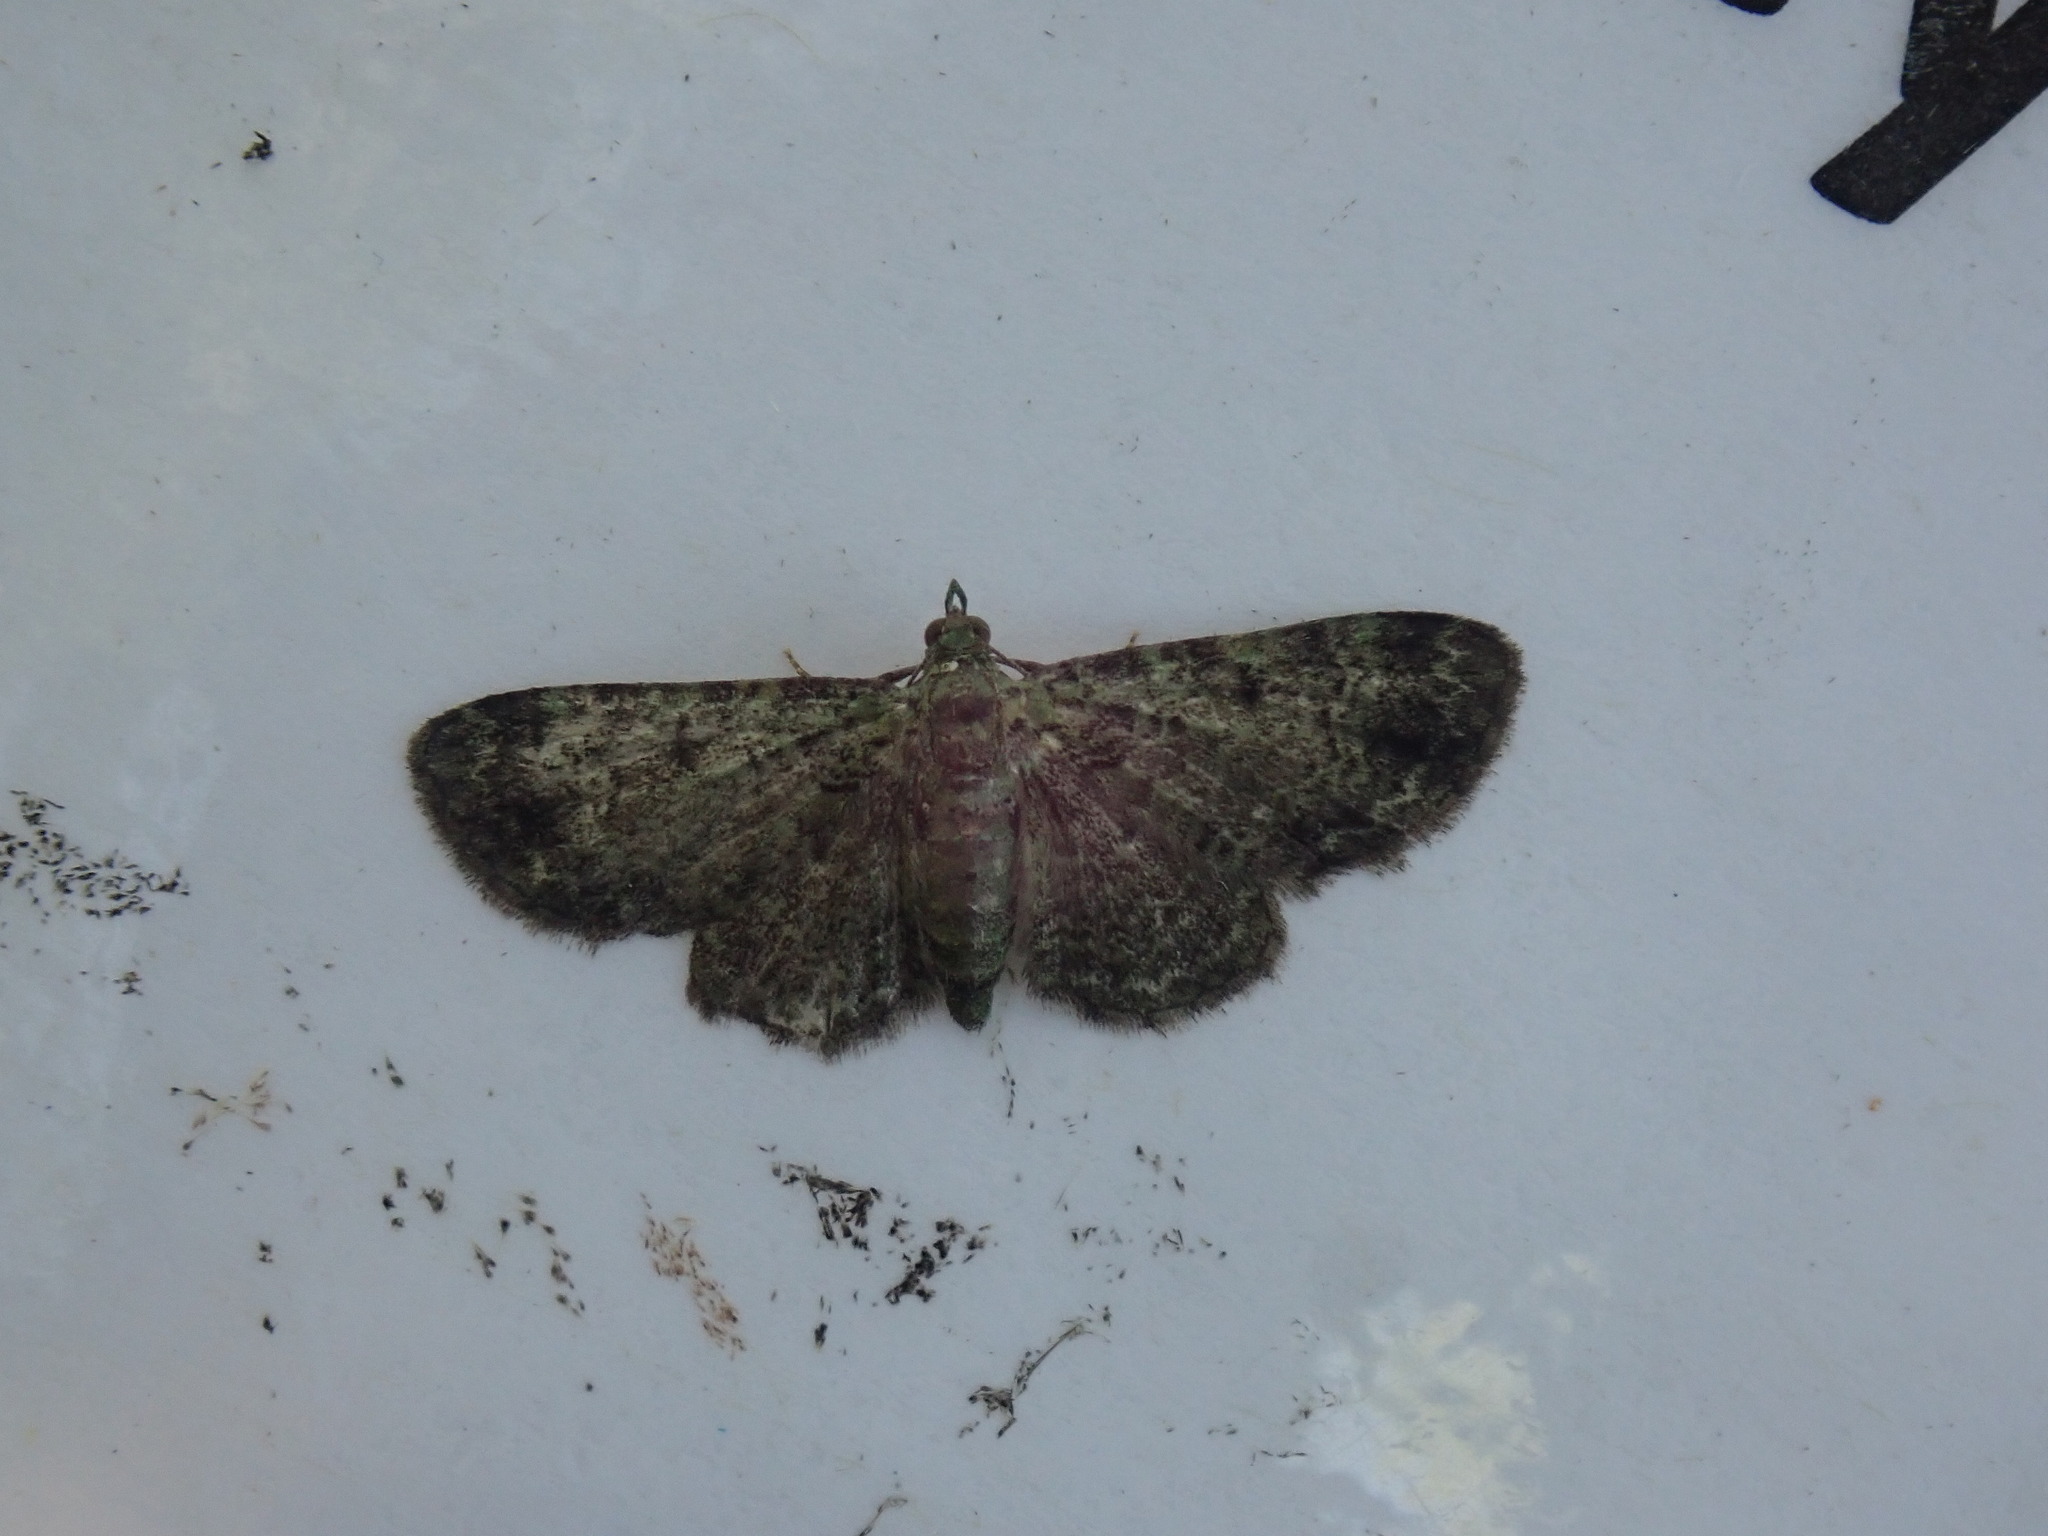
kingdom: Animalia
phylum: Arthropoda
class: Insecta
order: Lepidoptera
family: Geometridae
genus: Pasiphila
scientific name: Pasiphila rectangulata
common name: Green pug
